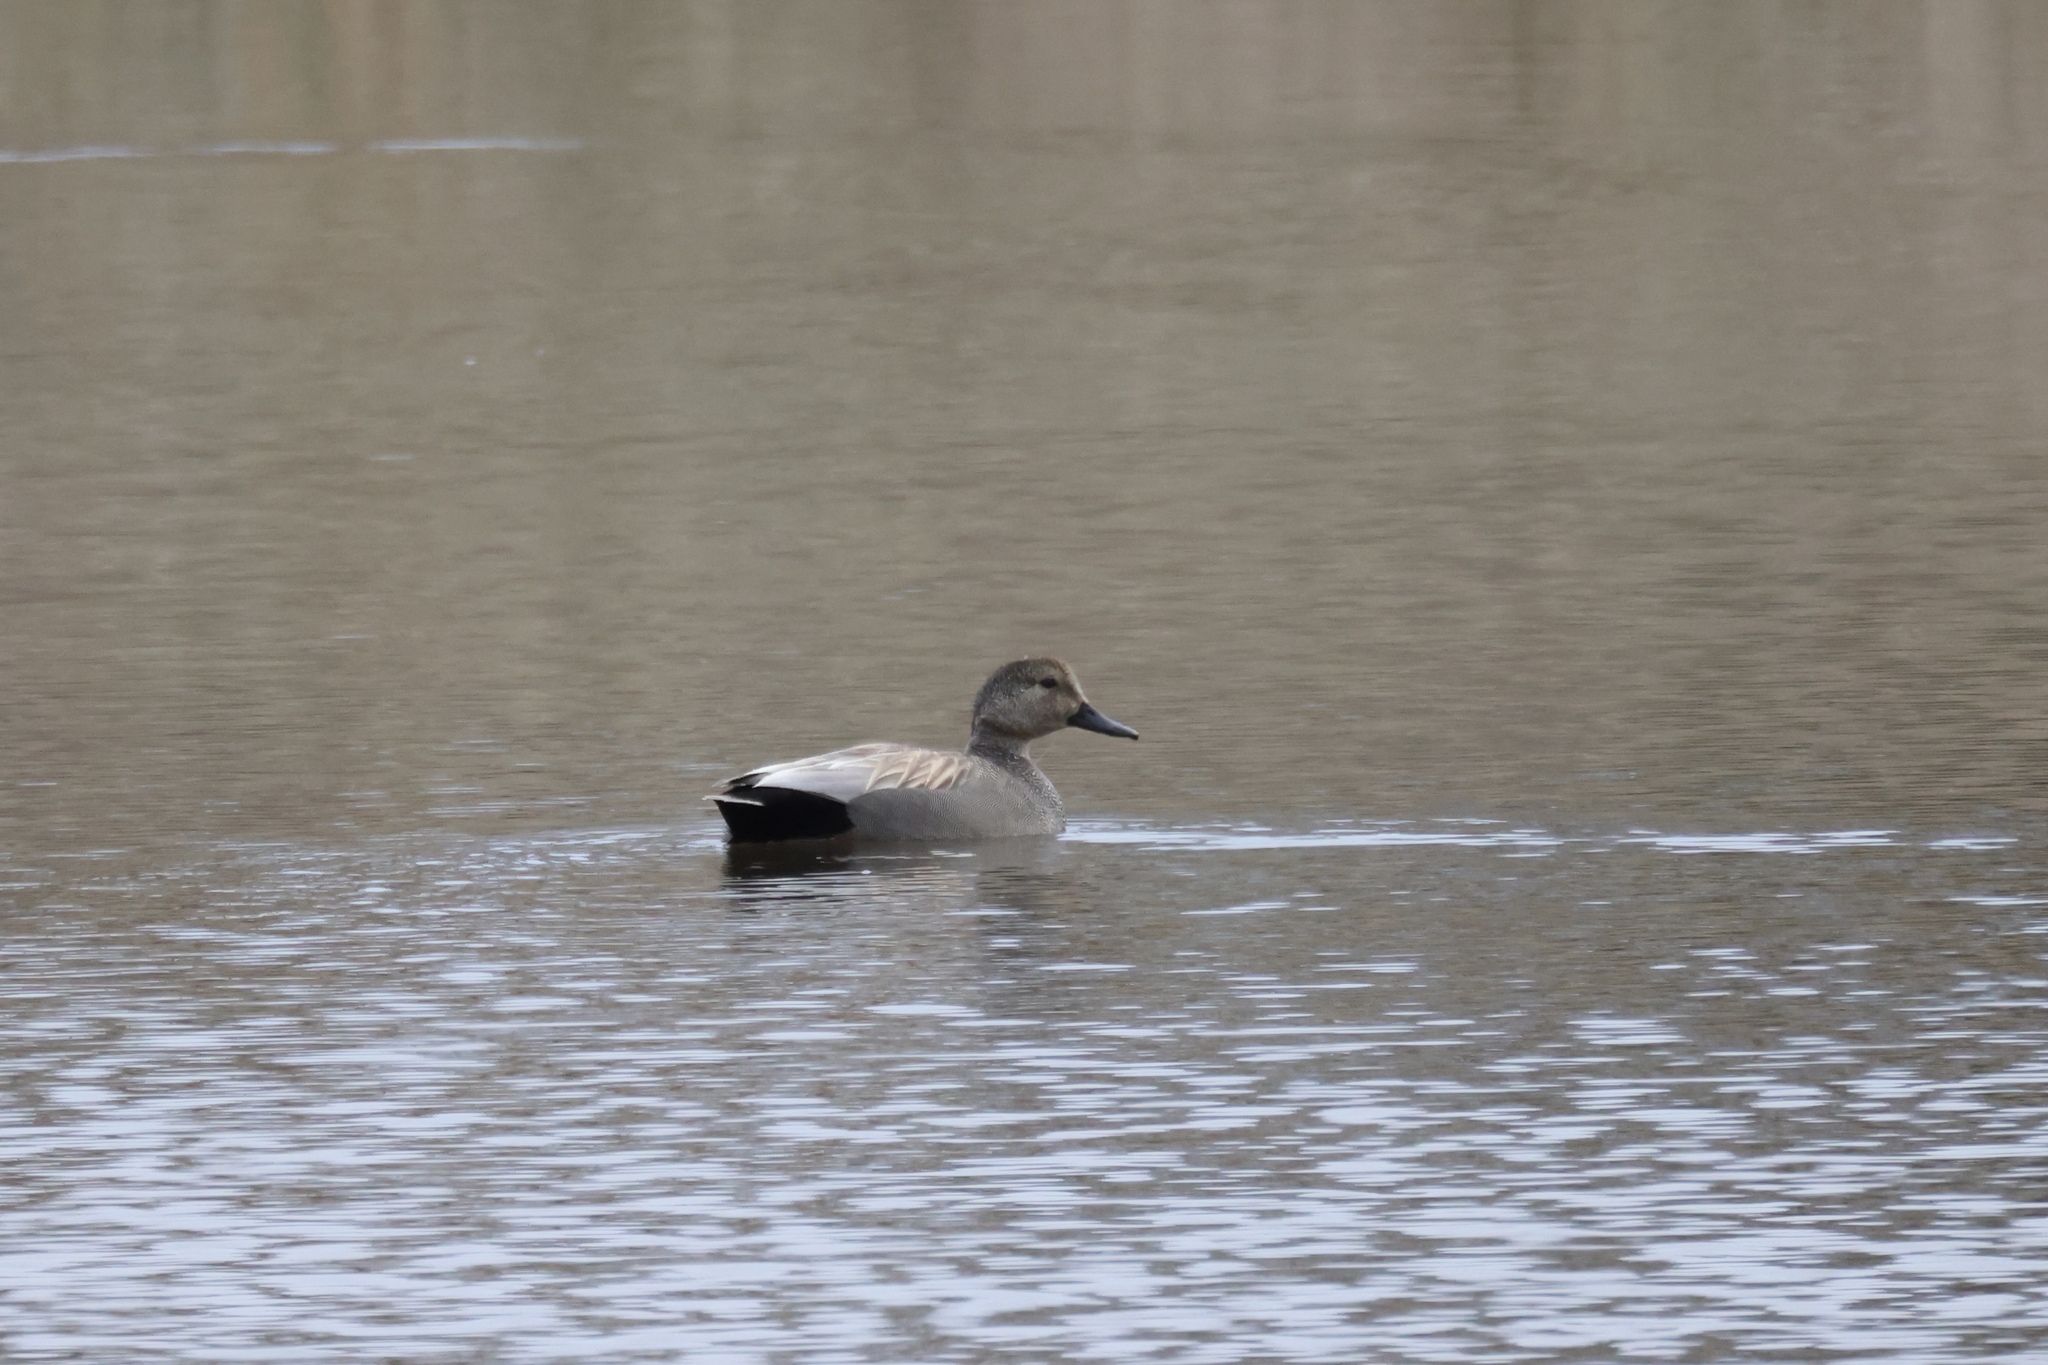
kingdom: Animalia
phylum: Chordata
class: Aves
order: Anseriformes
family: Anatidae
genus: Mareca
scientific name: Mareca strepera
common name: Gadwall
